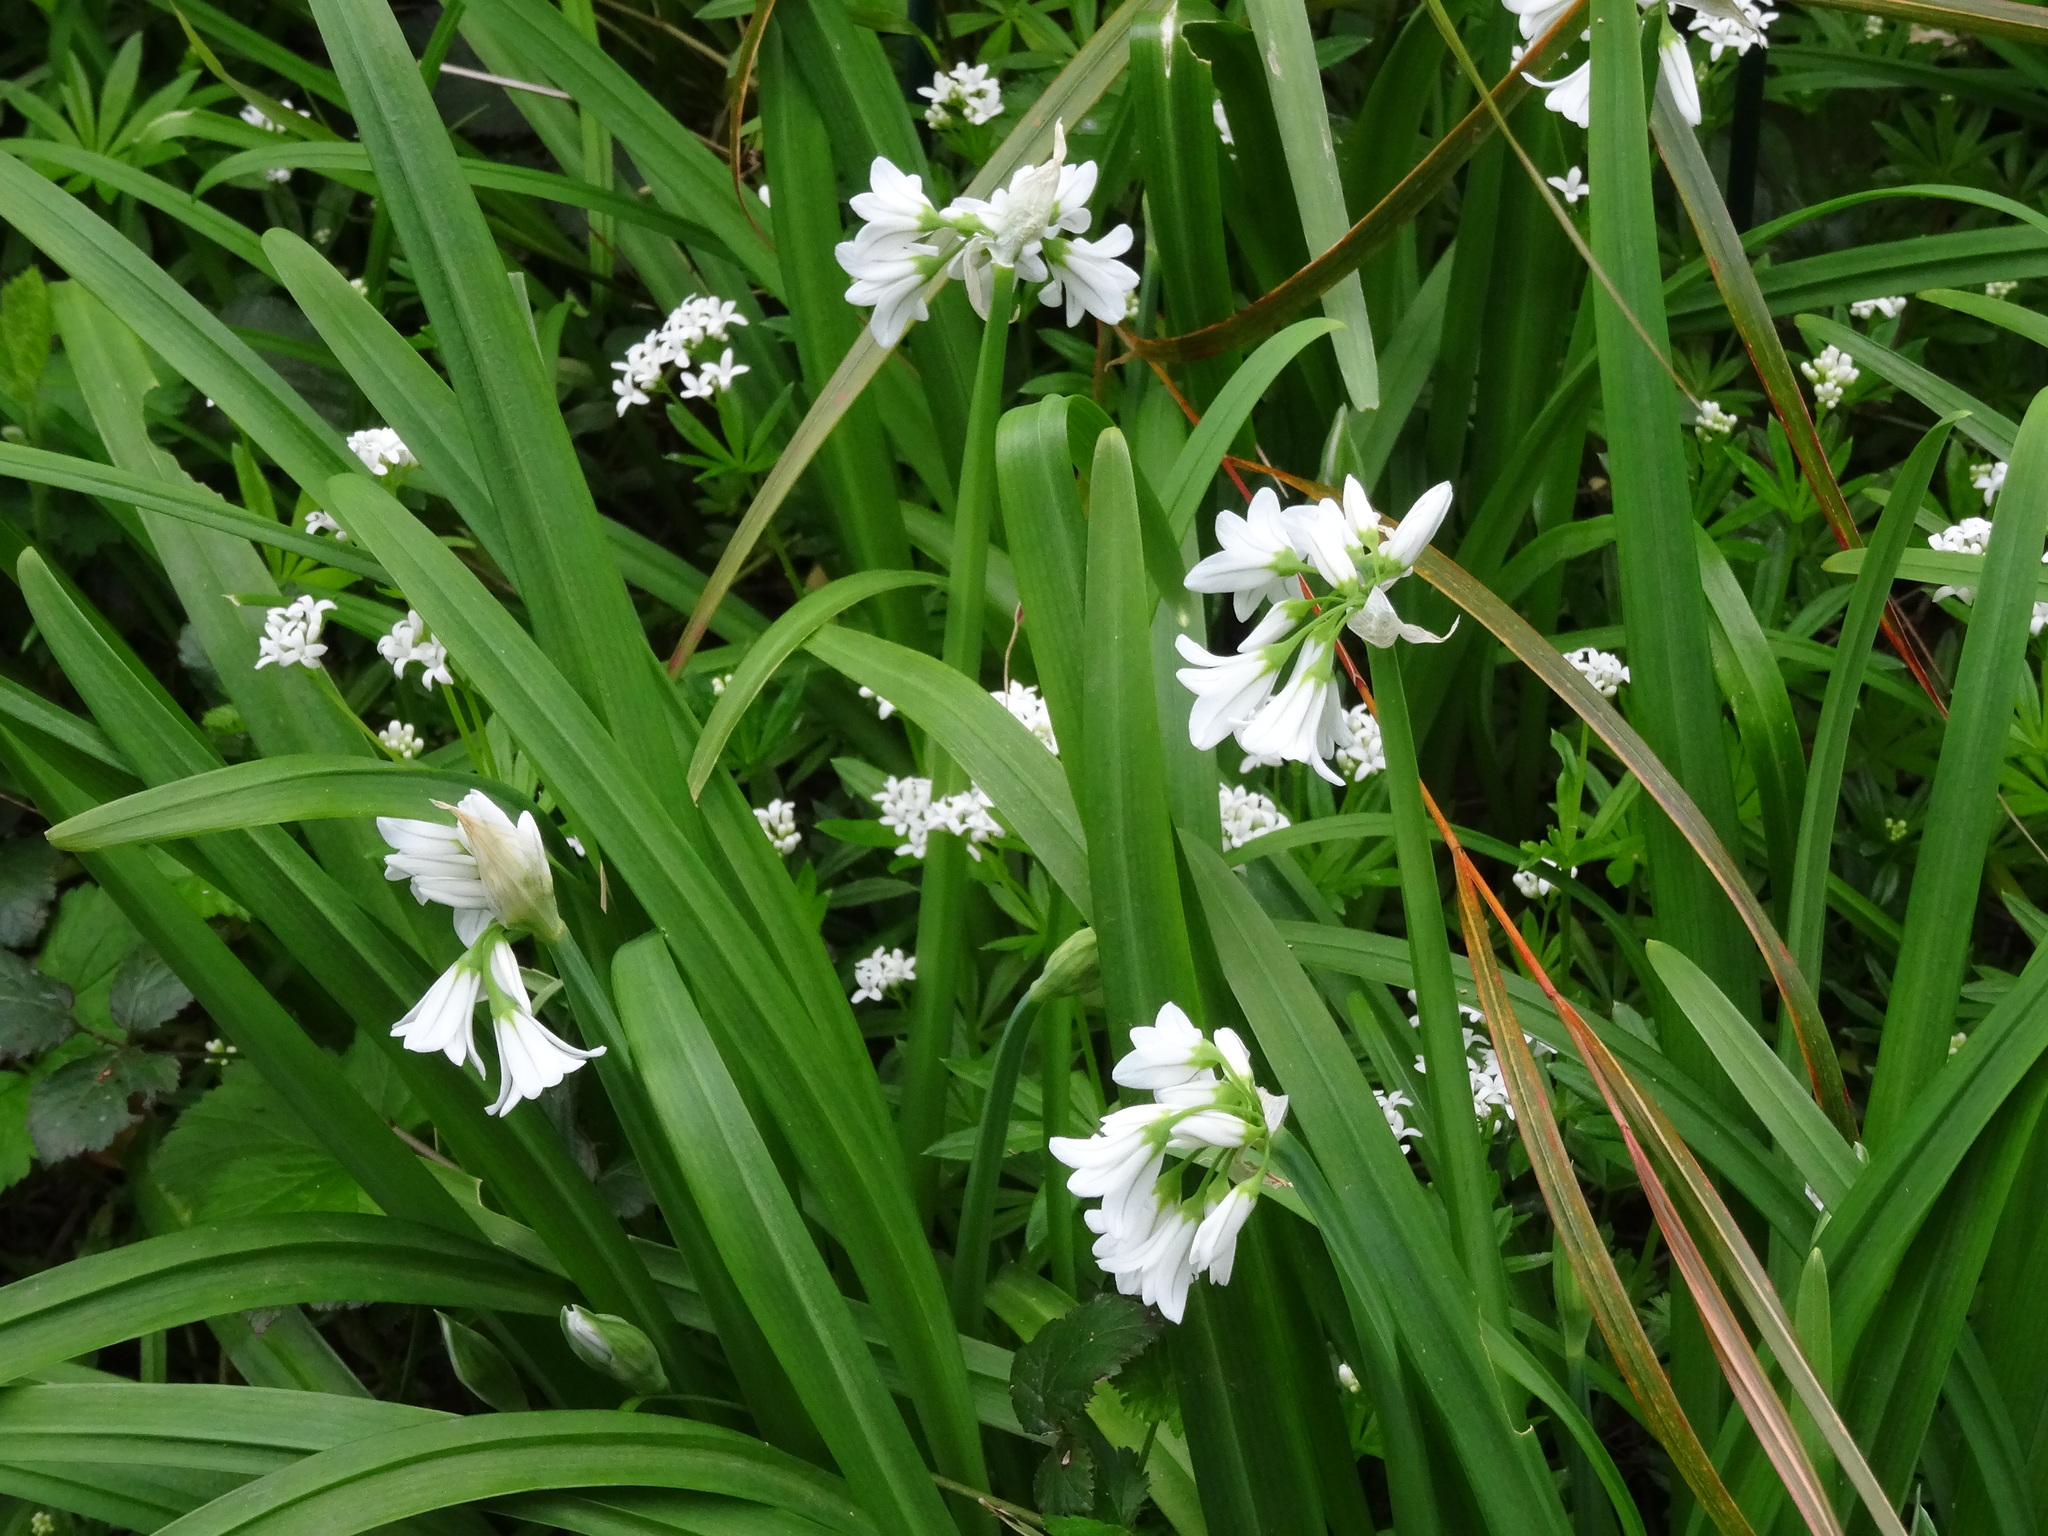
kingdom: Plantae
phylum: Tracheophyta
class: Liliopsida
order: Asparagales
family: Amaryllidaceae
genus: Allium
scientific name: Allium triquetrum
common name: Three-cornered garlic
